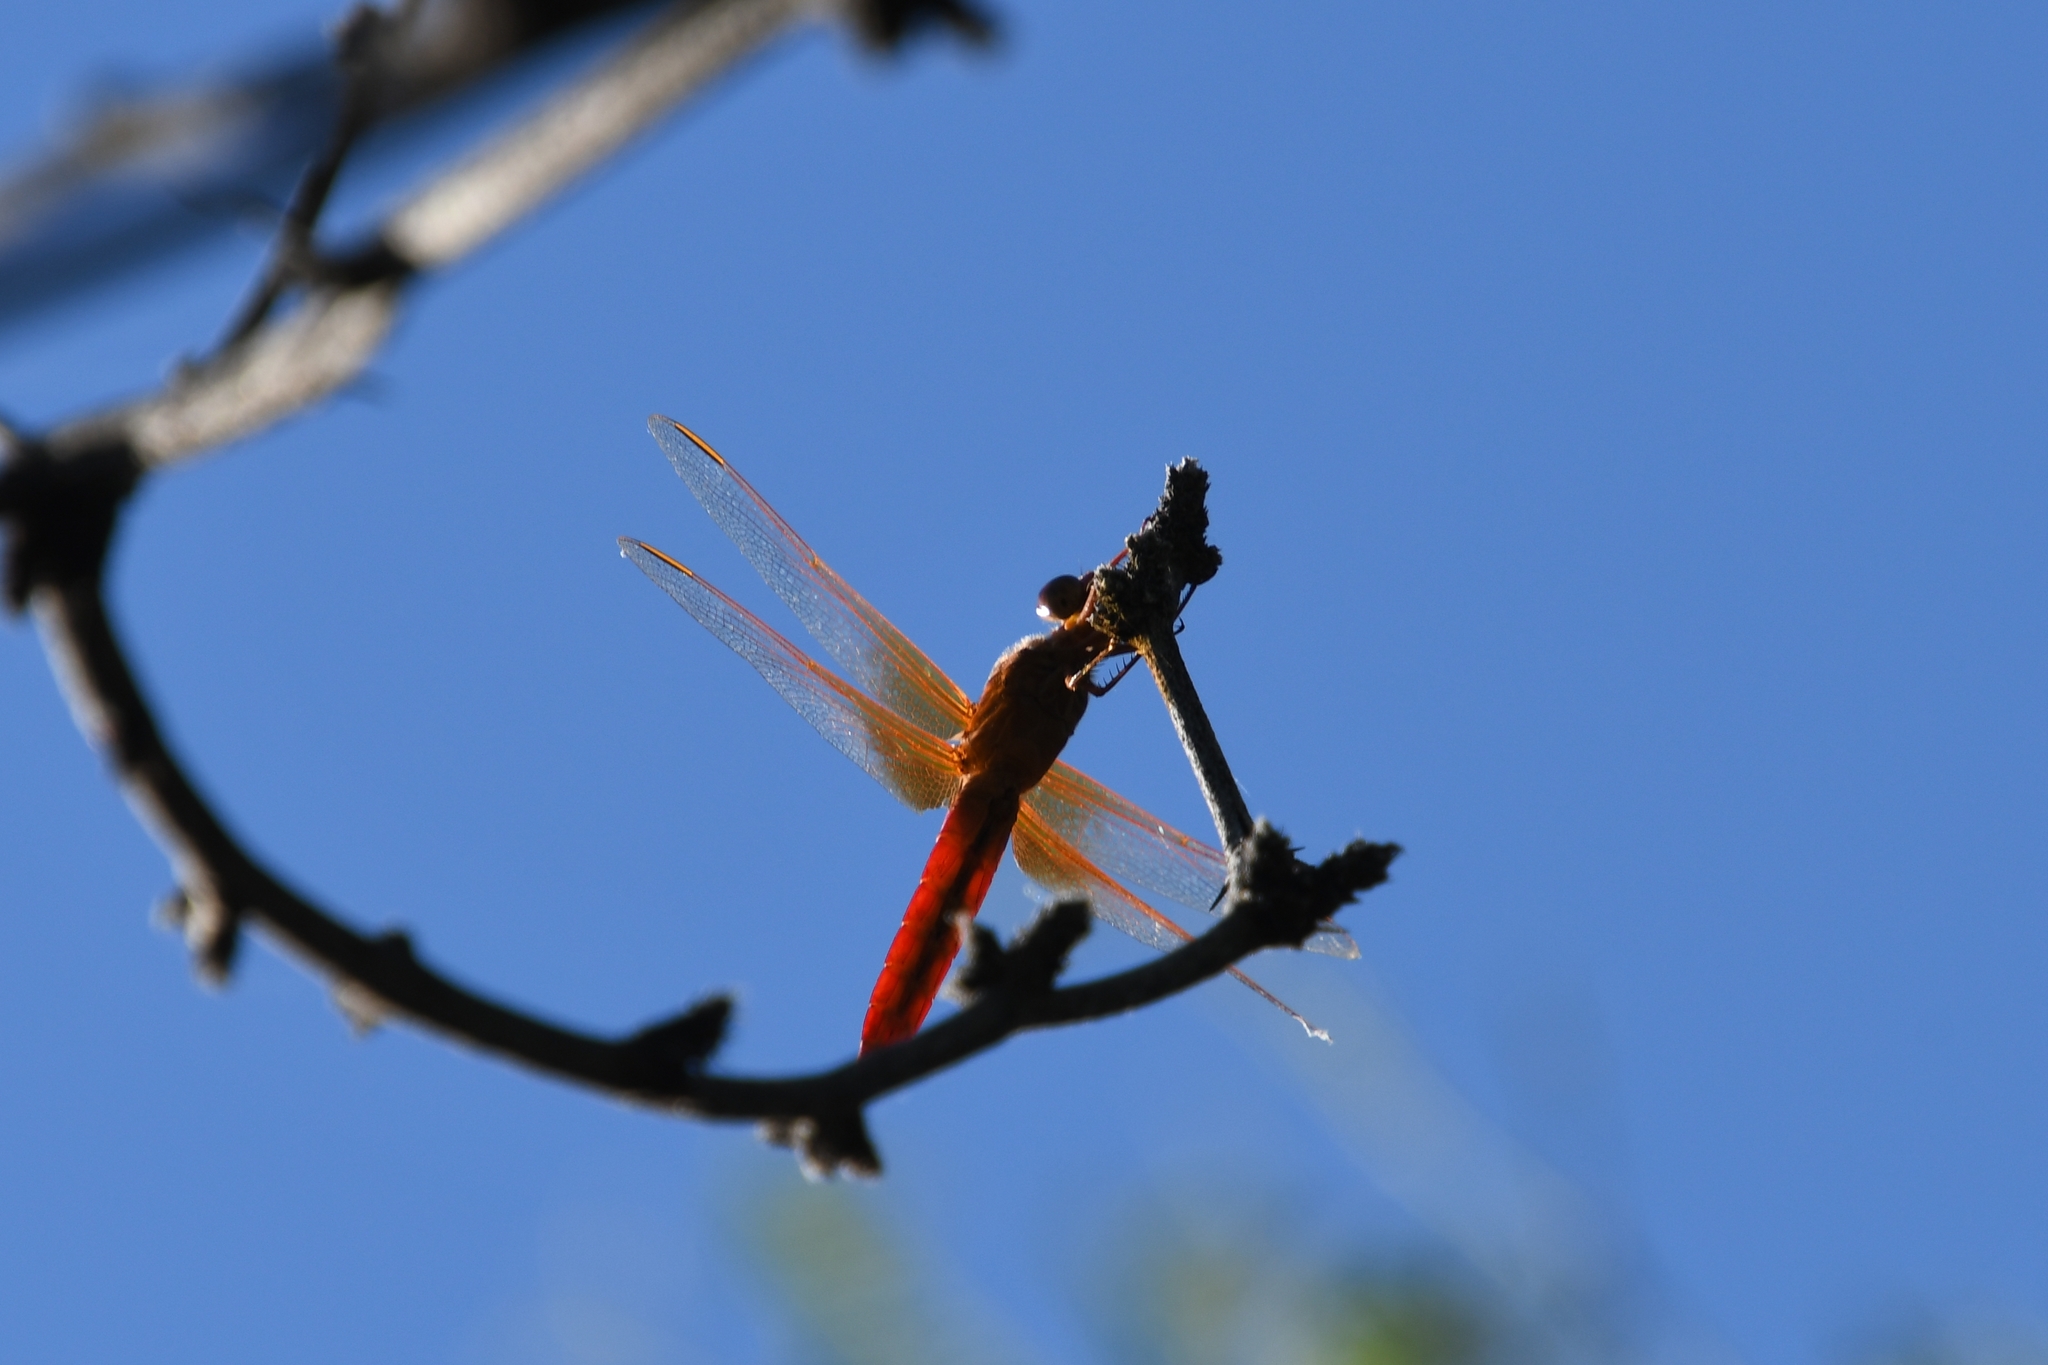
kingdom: Animalia
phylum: Arthropoda
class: Insecta
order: Odonata
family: Libellulidae
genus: Libellula
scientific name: Libellula croceipennis
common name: Neon skimmer
